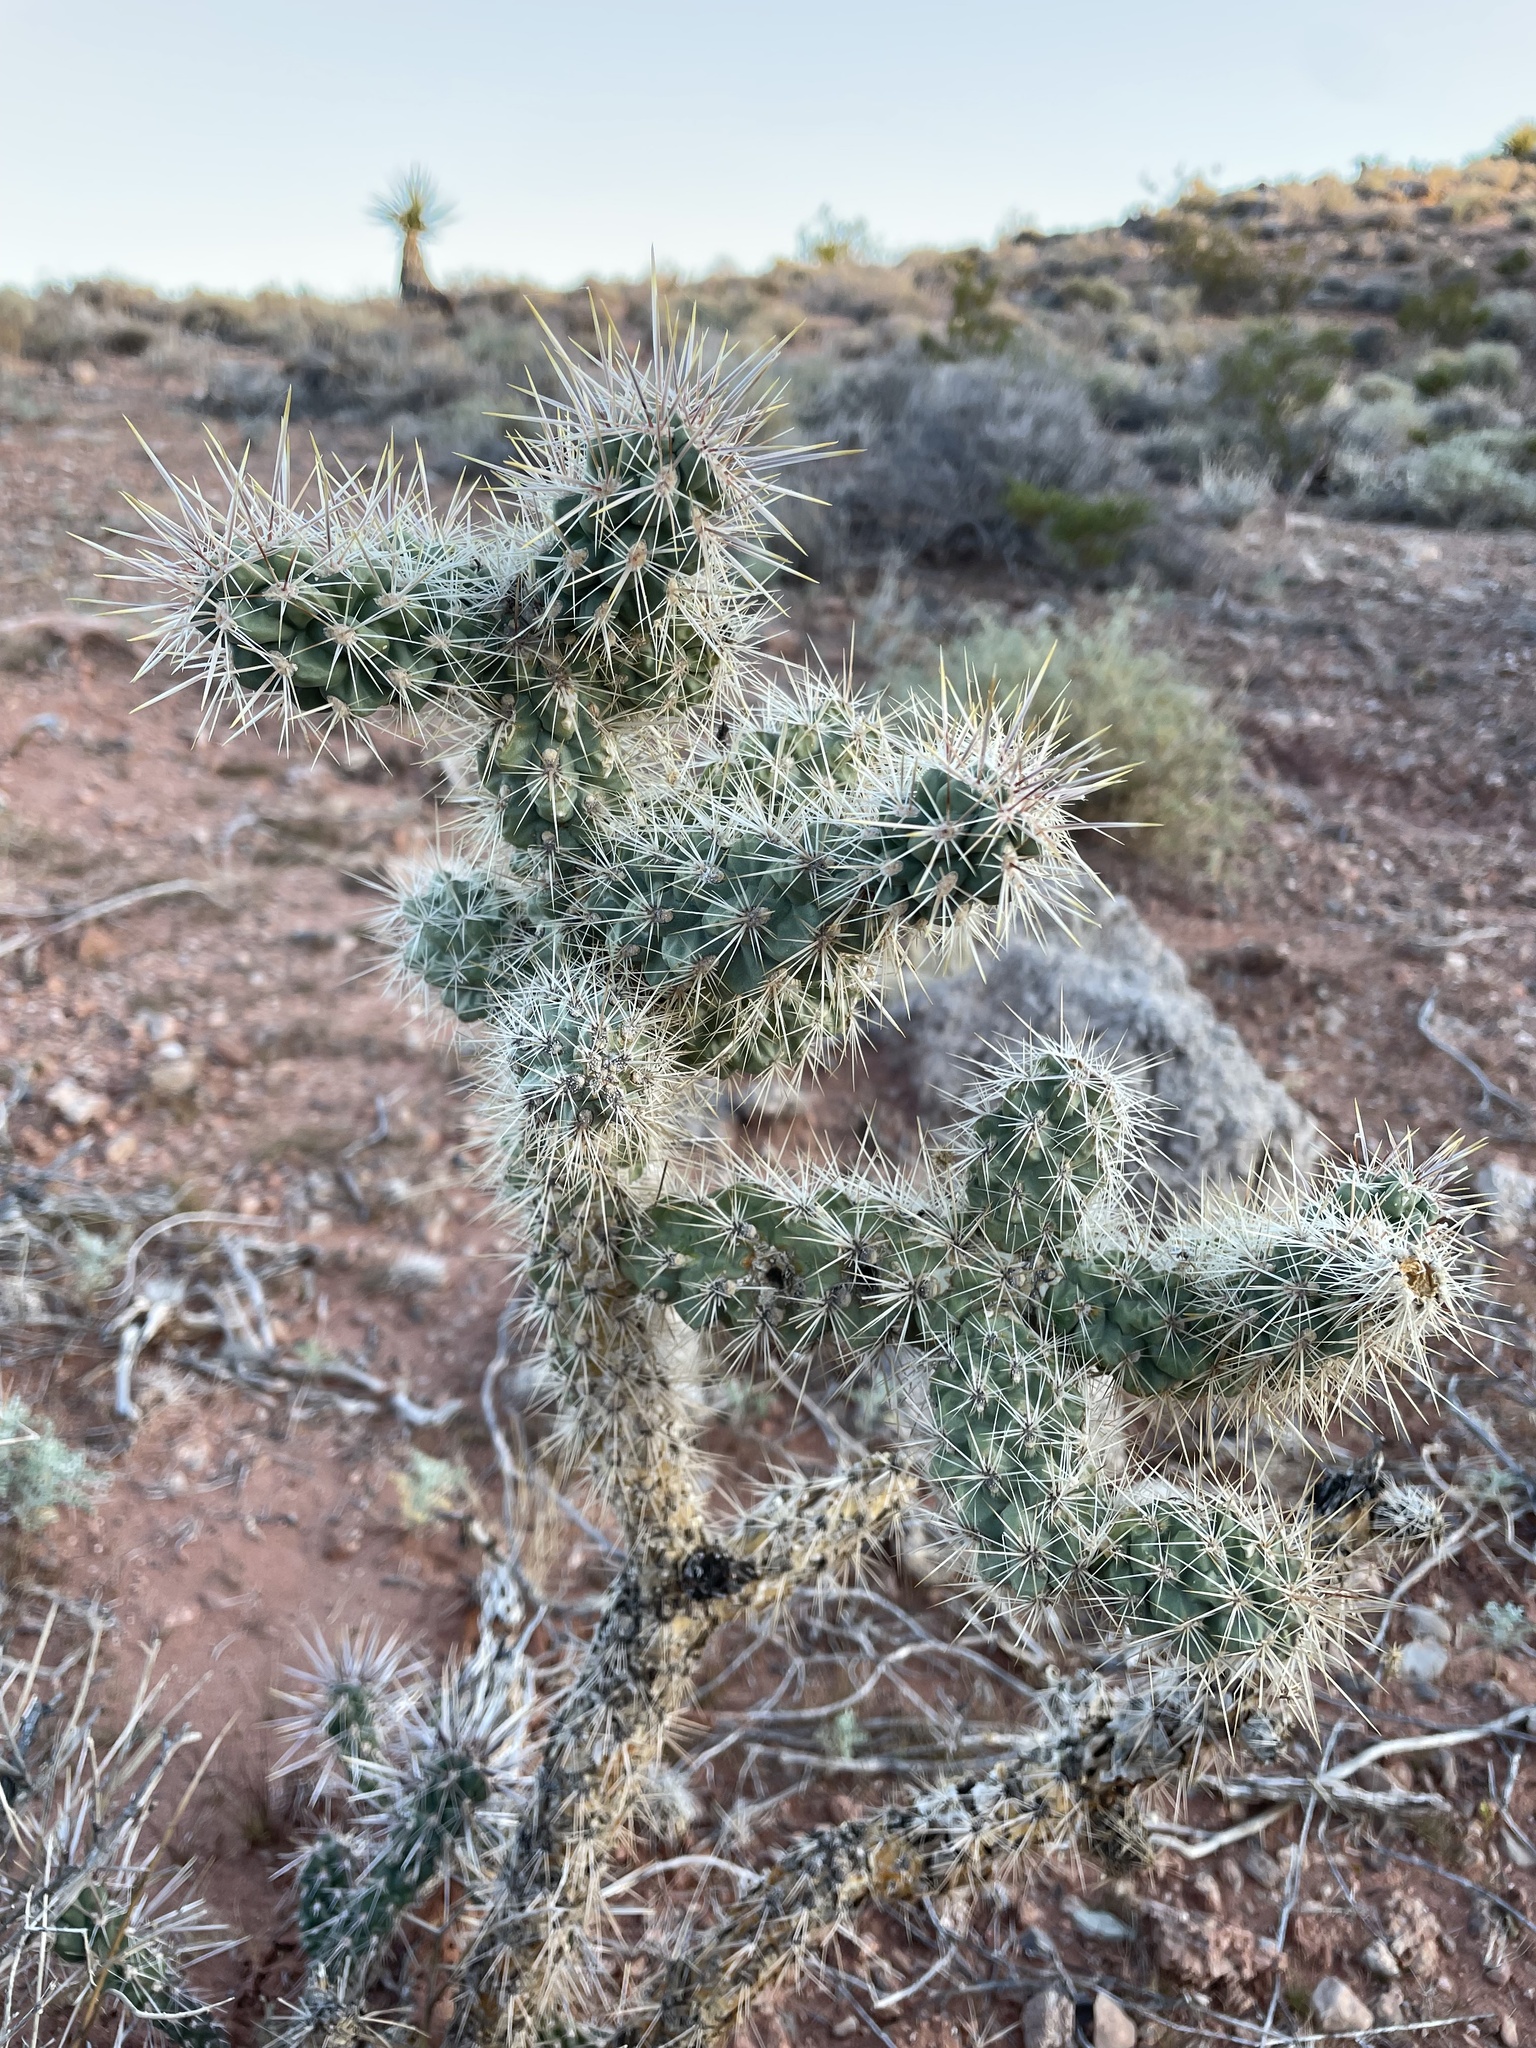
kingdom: Plantae
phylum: Tracheophyta
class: Magnoliopsida
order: Caryophyllales
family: Cactaceae
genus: Cylindropuntia
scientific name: Cylindropuntia echinocarpa
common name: Ground cholla
